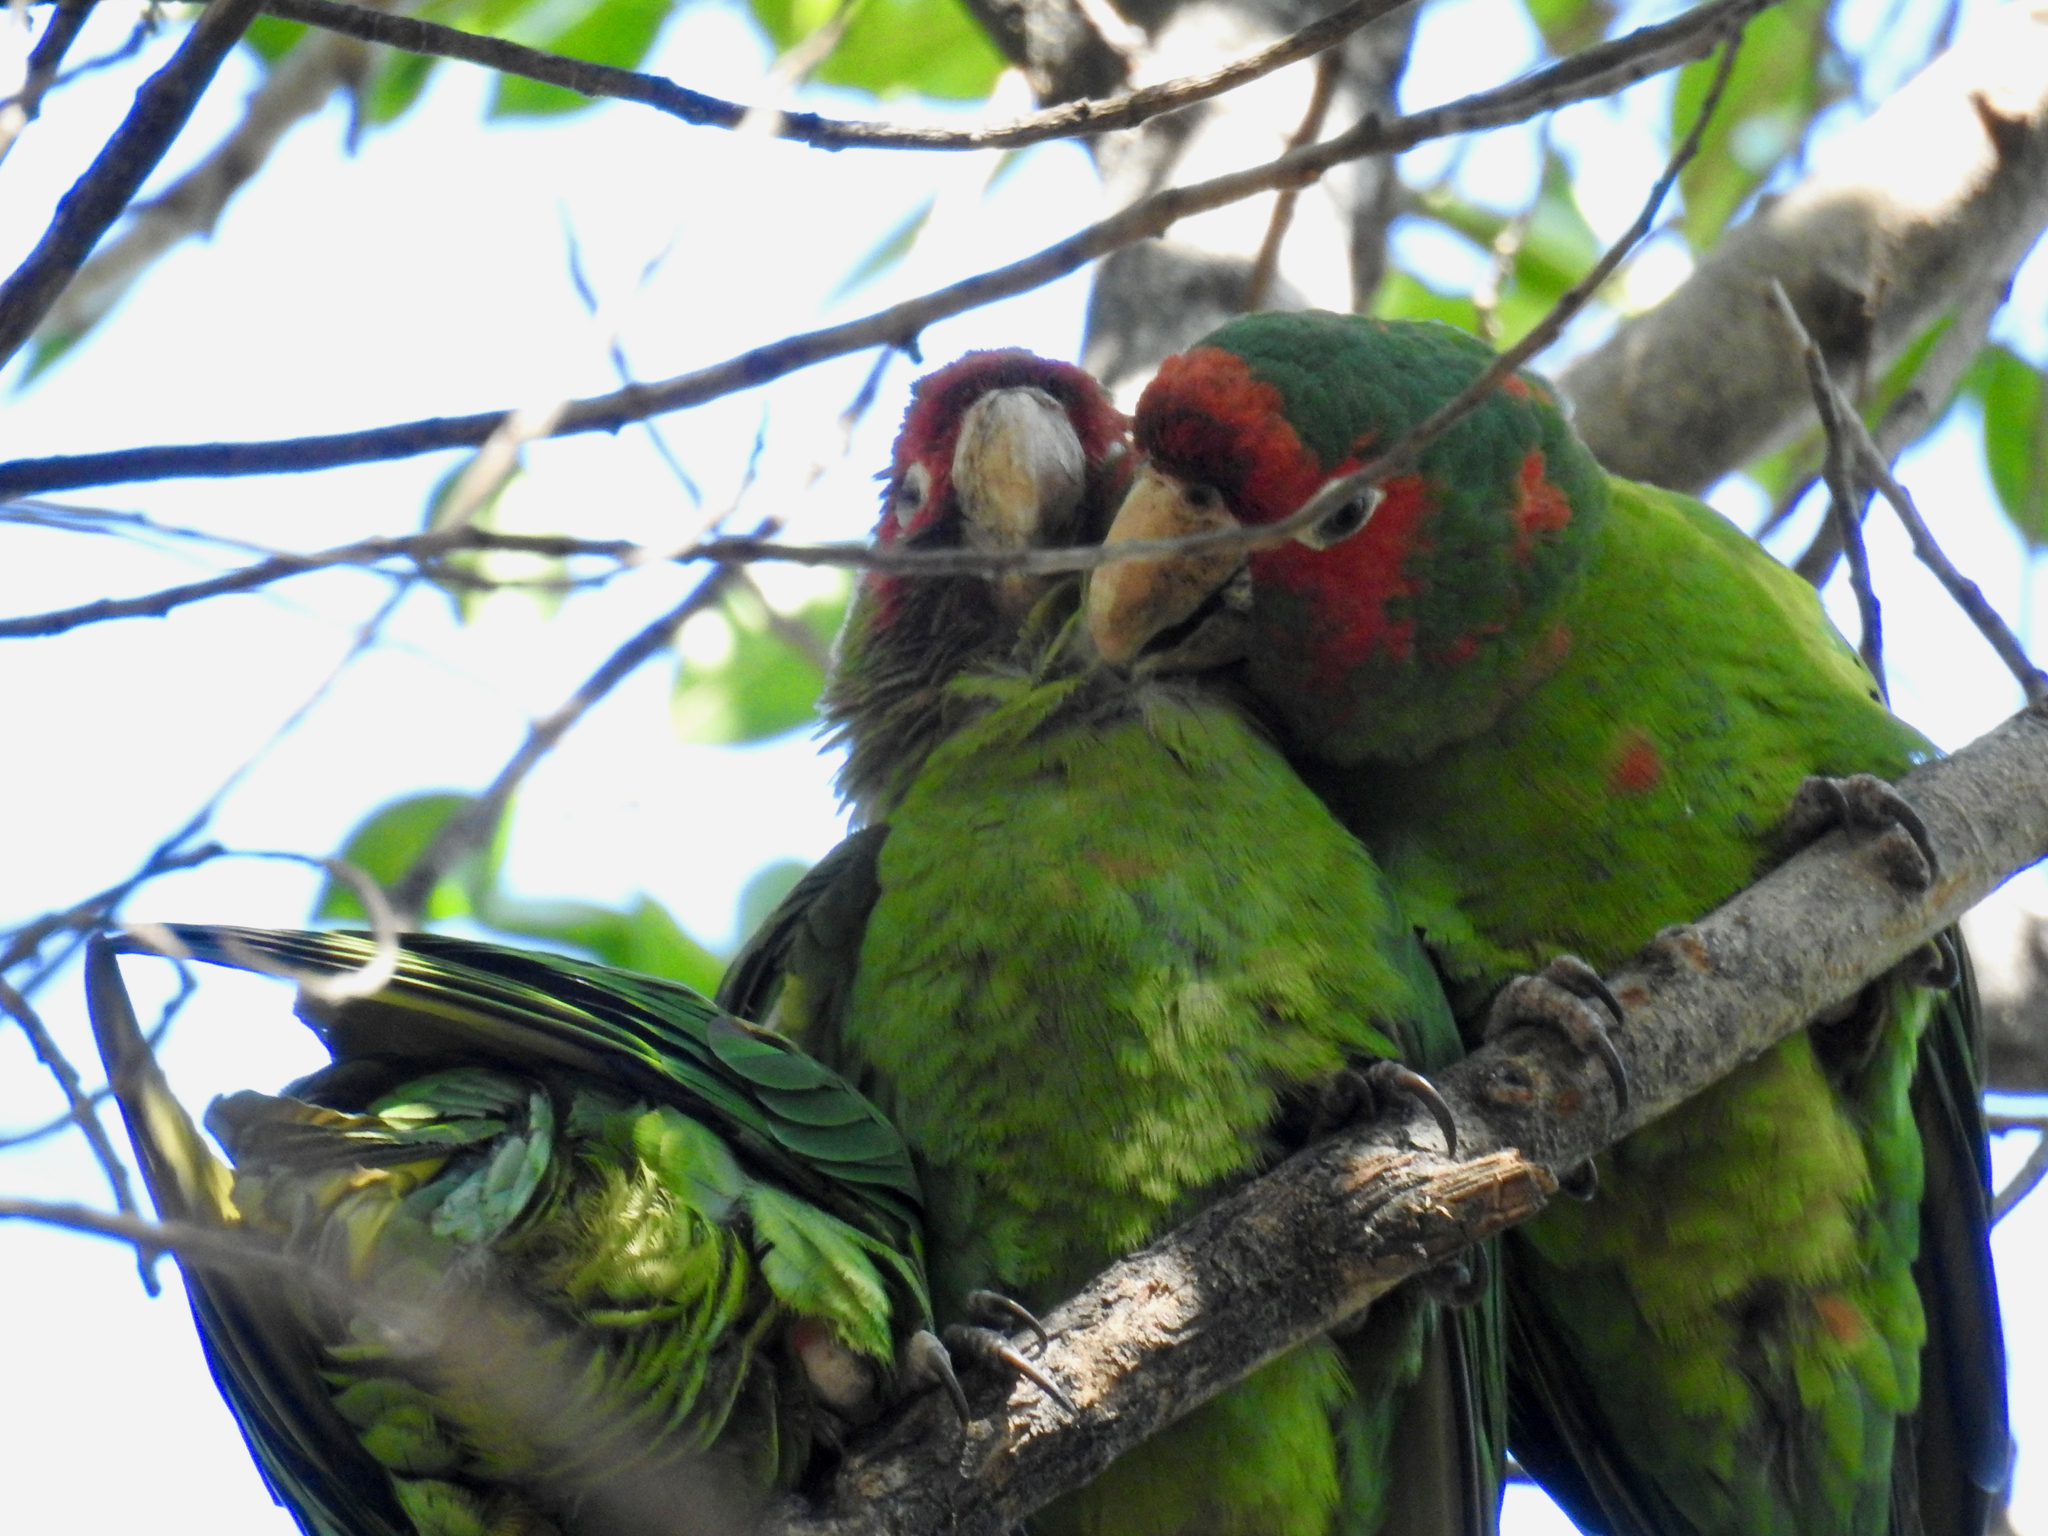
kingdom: Animalia
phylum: Chordata
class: Aves
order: Psittaciformes
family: Psittacidae
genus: Aratinga
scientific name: Aratinga mitrata
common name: Mitred parakeet
